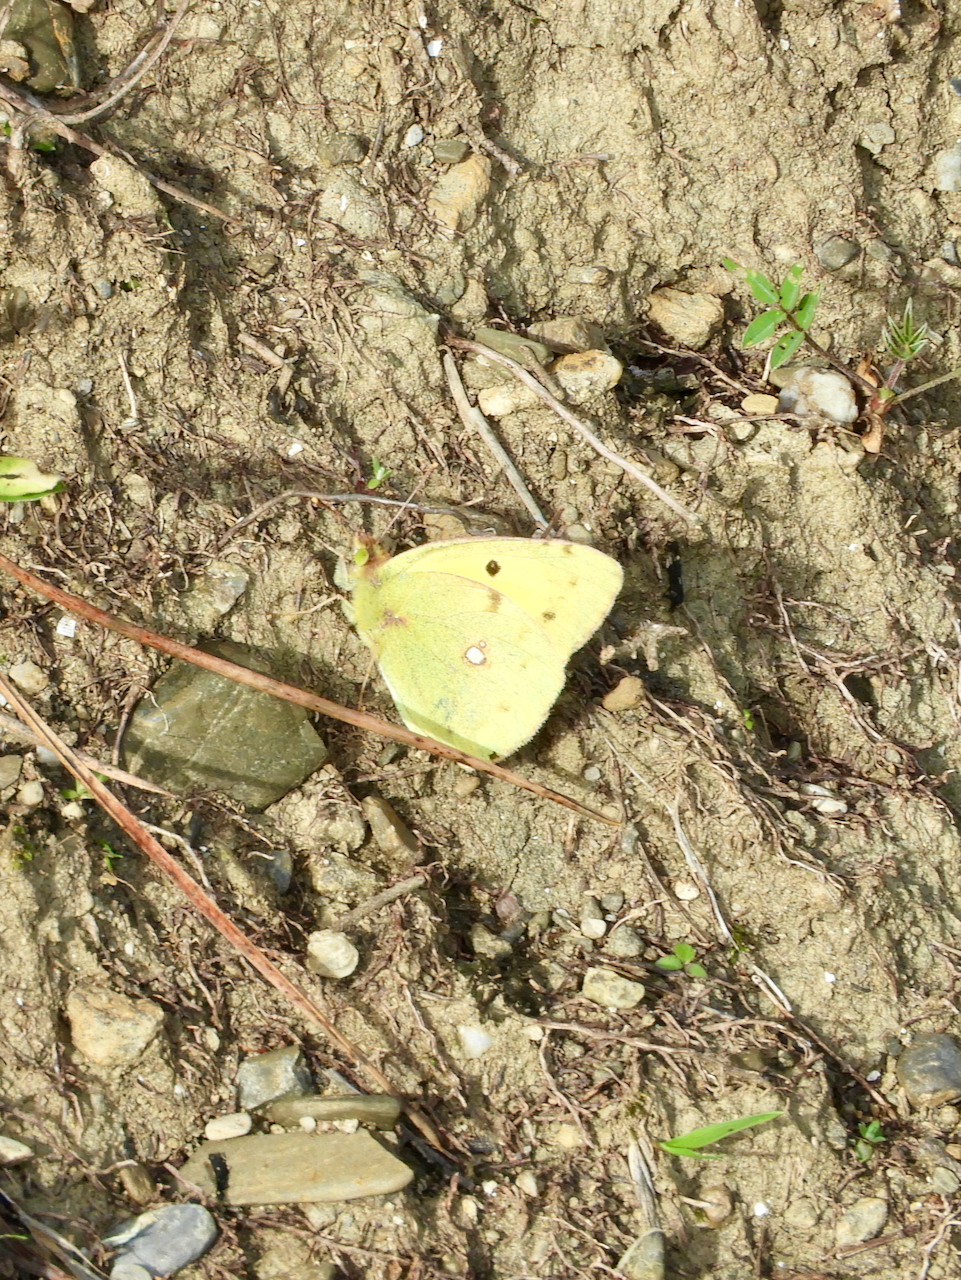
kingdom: Animalia
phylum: Arthropoda
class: Insecta
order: Lepidoptera
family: Pieridae
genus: Colias
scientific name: Colias croceus
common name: Clouded yellow
